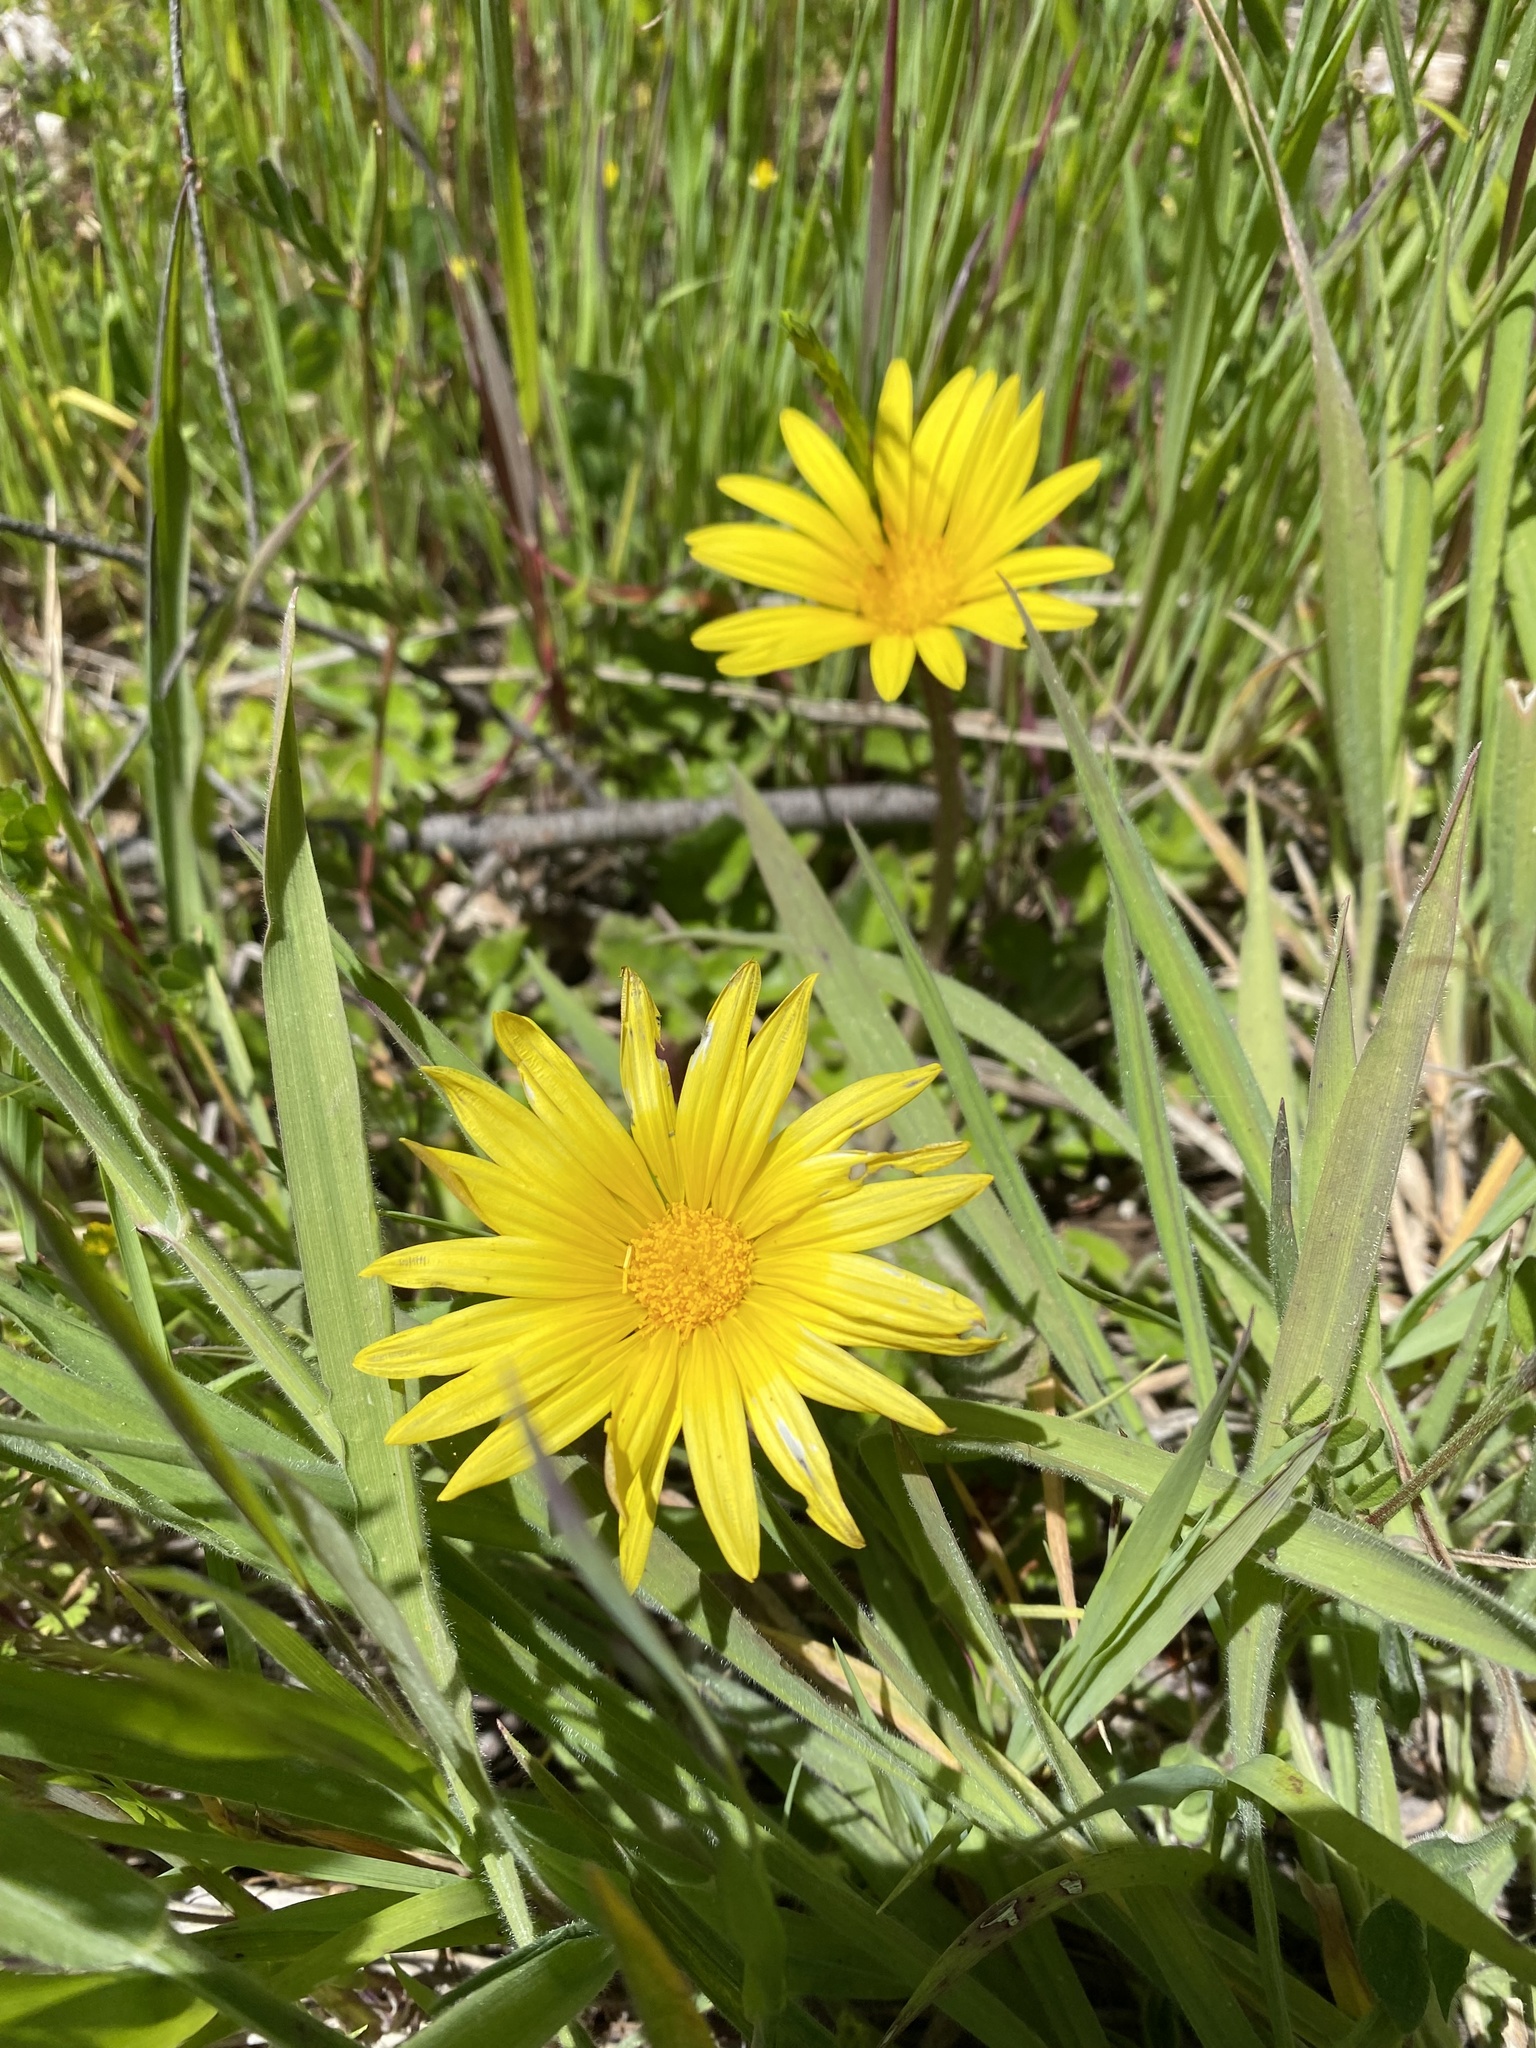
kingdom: Plantae
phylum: Tracheophyta
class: Magnoliopsida
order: Asterales
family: Asteraceae
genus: Arctotheca
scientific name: Arctotheca prostrata
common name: Capeweed
